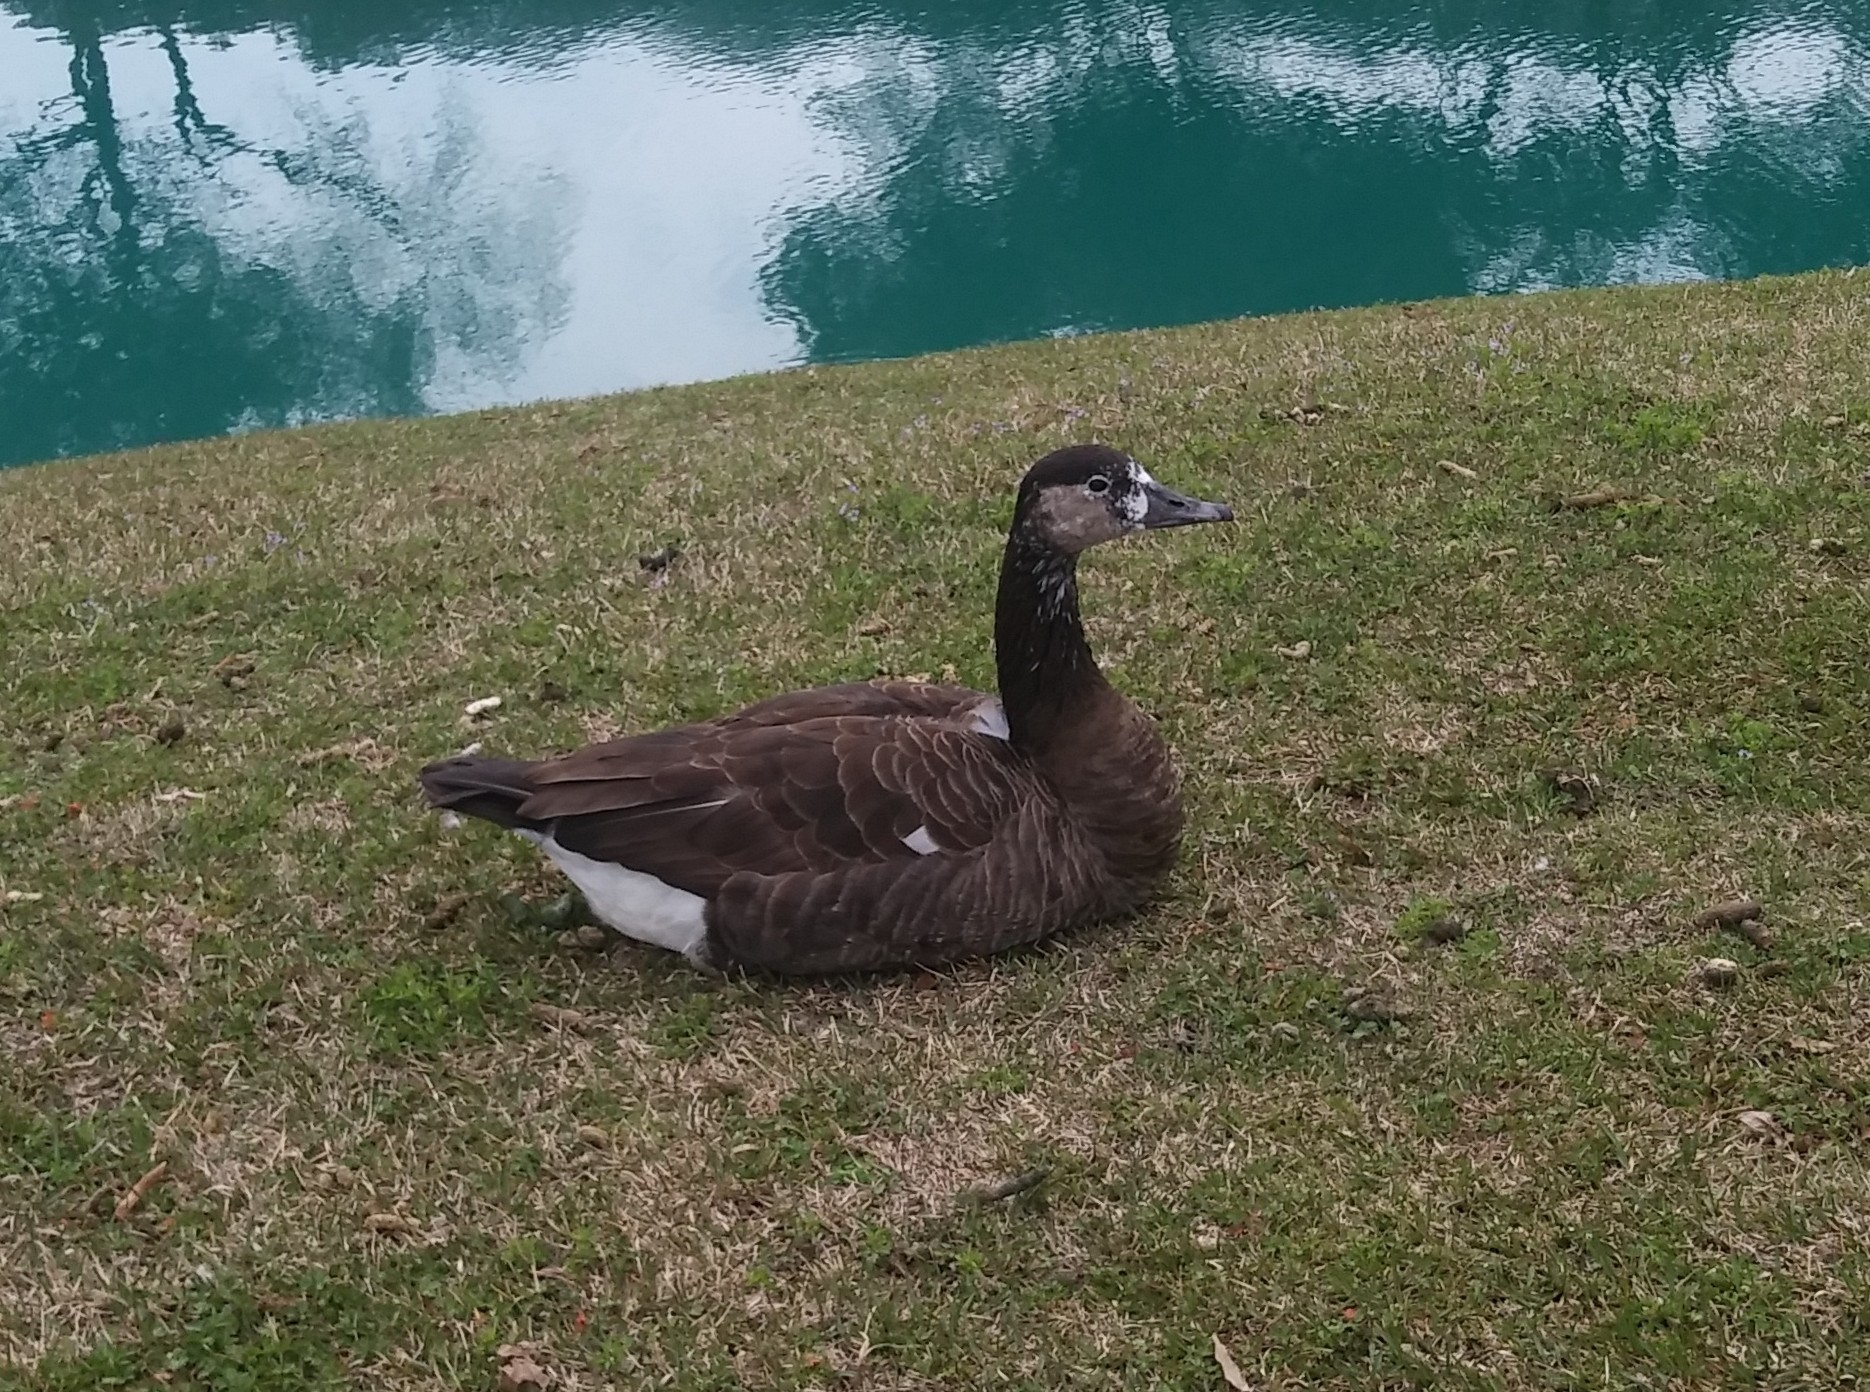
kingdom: Animalia
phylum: Chordata
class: Aves
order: Anseriformes
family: Anatidae
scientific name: Anatidae
